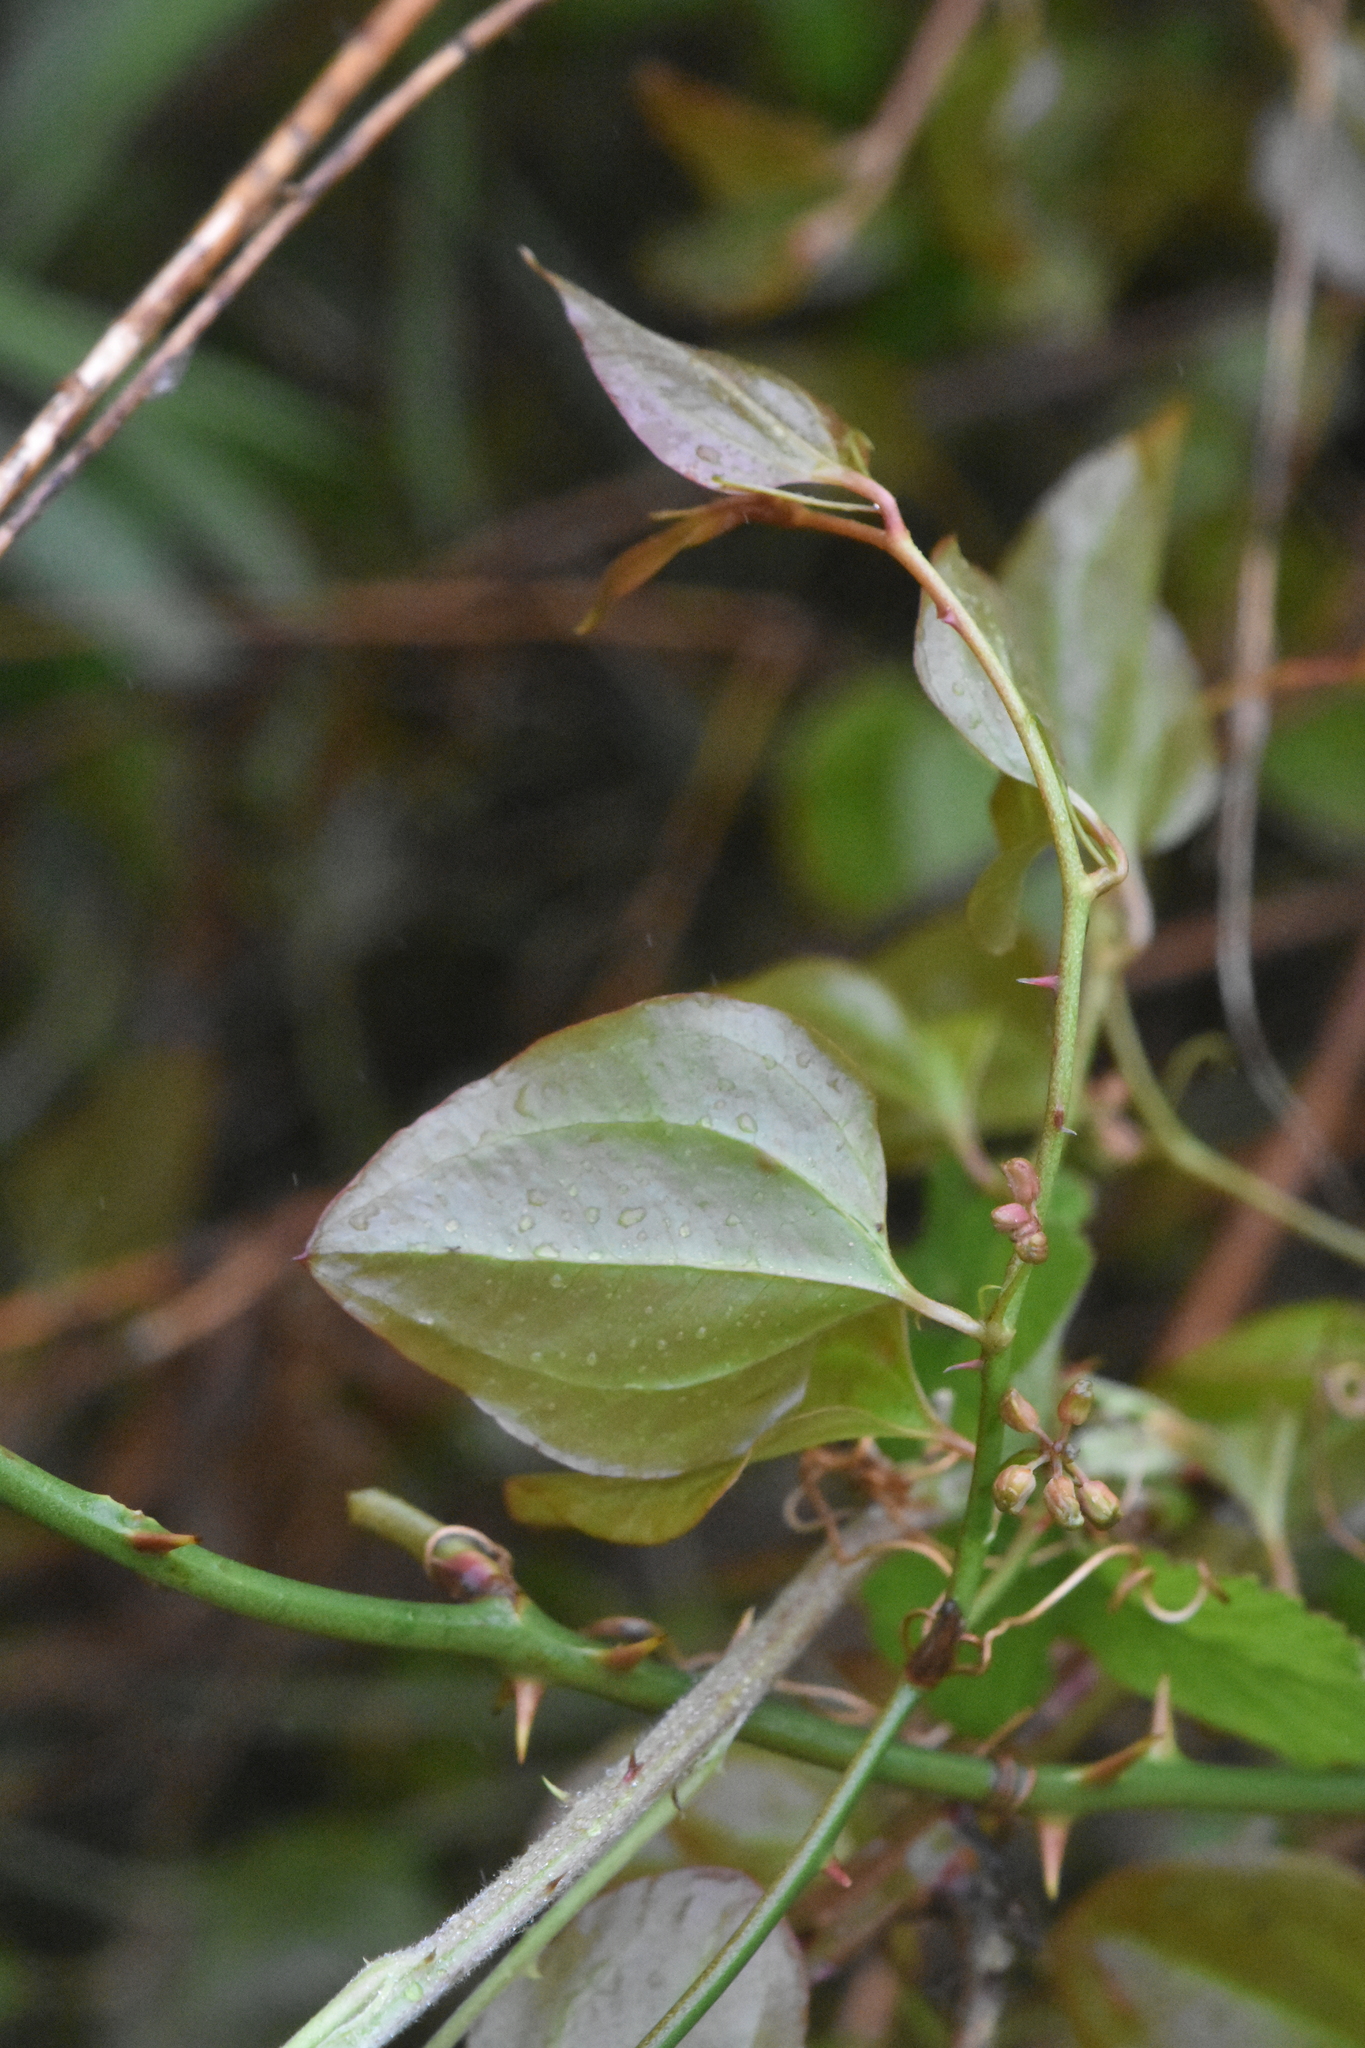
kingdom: Plantae
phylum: Tracheophyta
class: Liliopsida
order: Liliales
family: Smilacaceae
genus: Smilax
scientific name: Smilax excelsa
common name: Larger smilax
